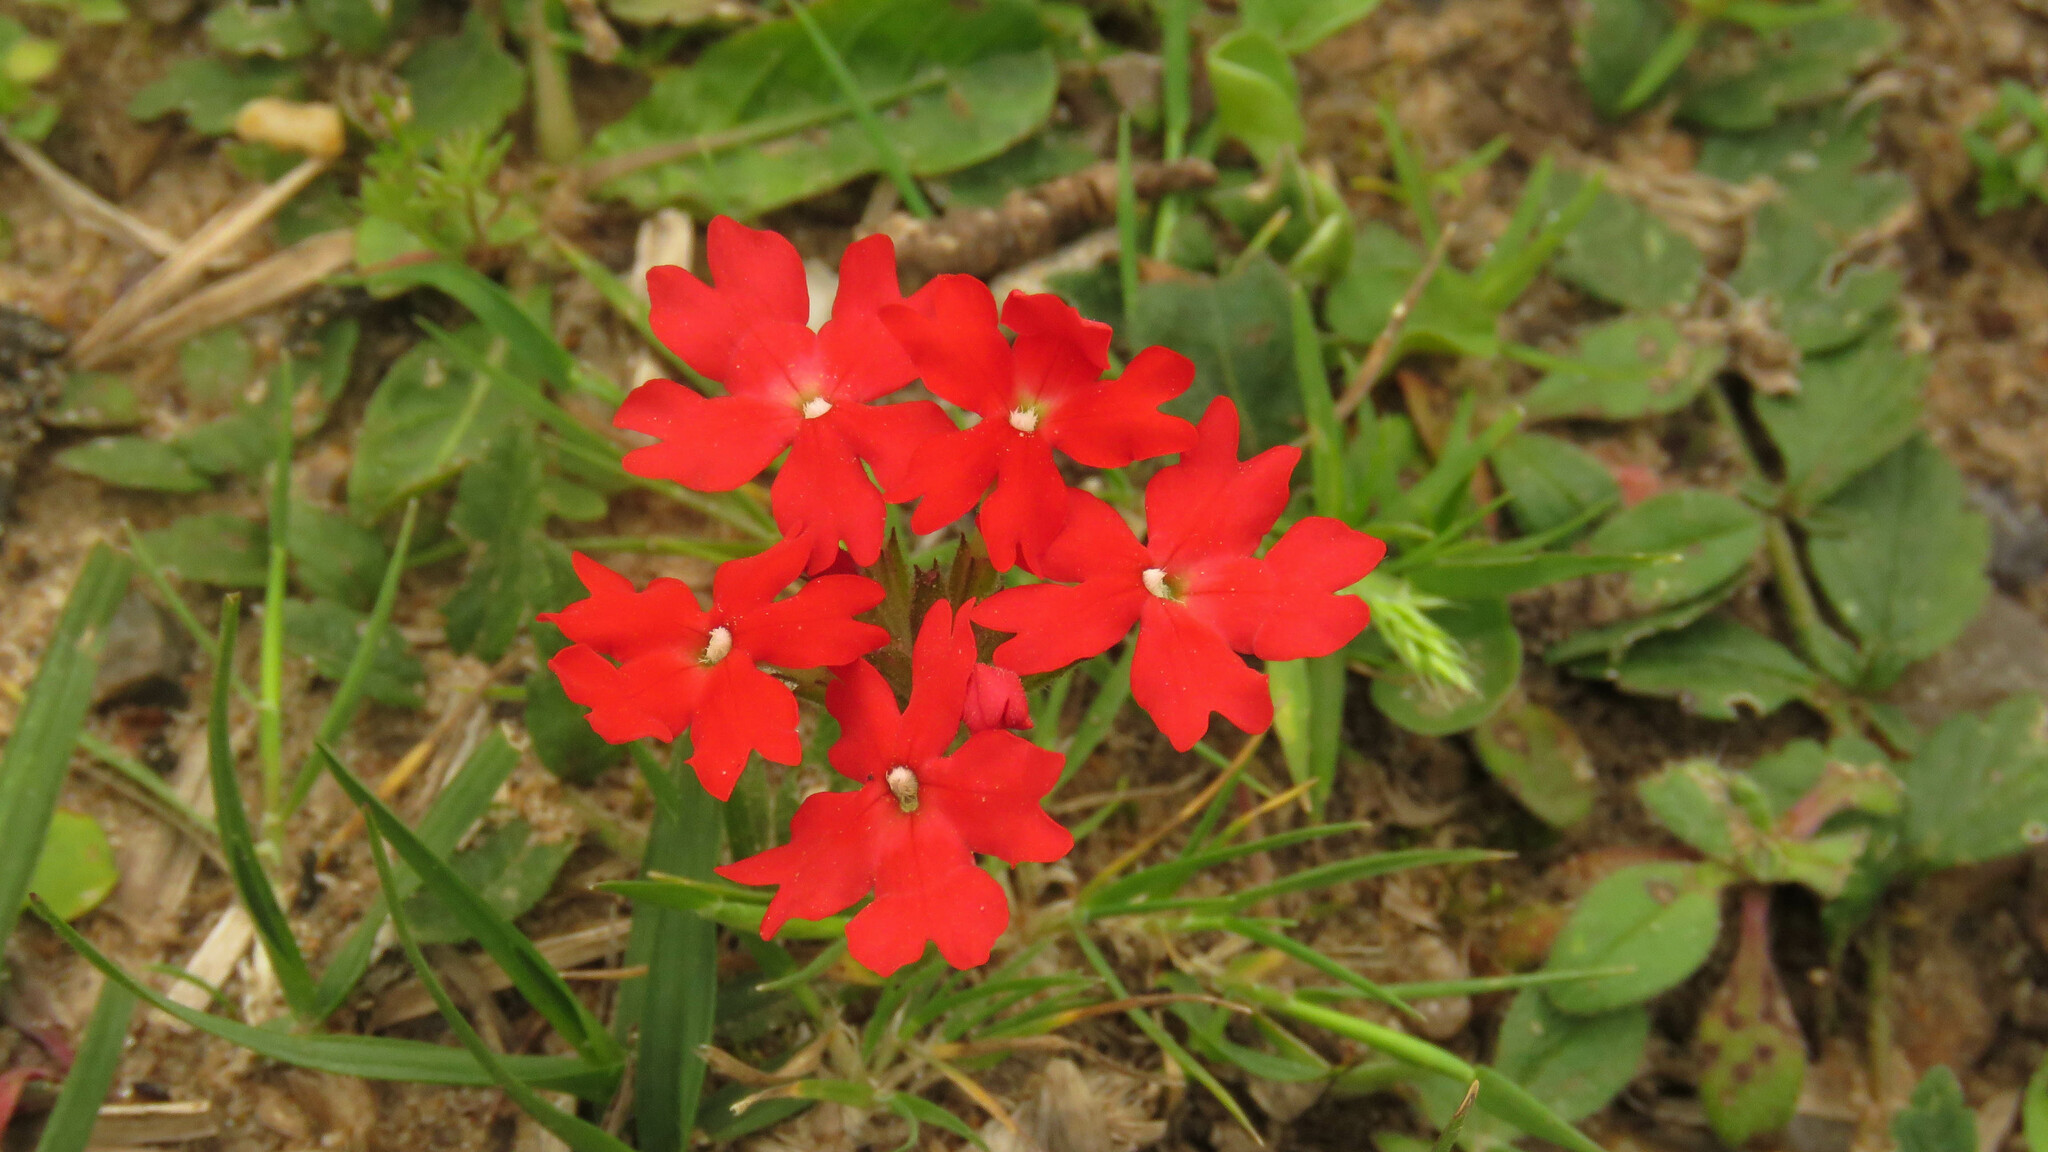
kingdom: Plantae
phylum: Tracheophyta
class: Magnoliopsida
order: Lamiales
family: Verbenaceae
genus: Verbena
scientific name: Verbena peruviana
